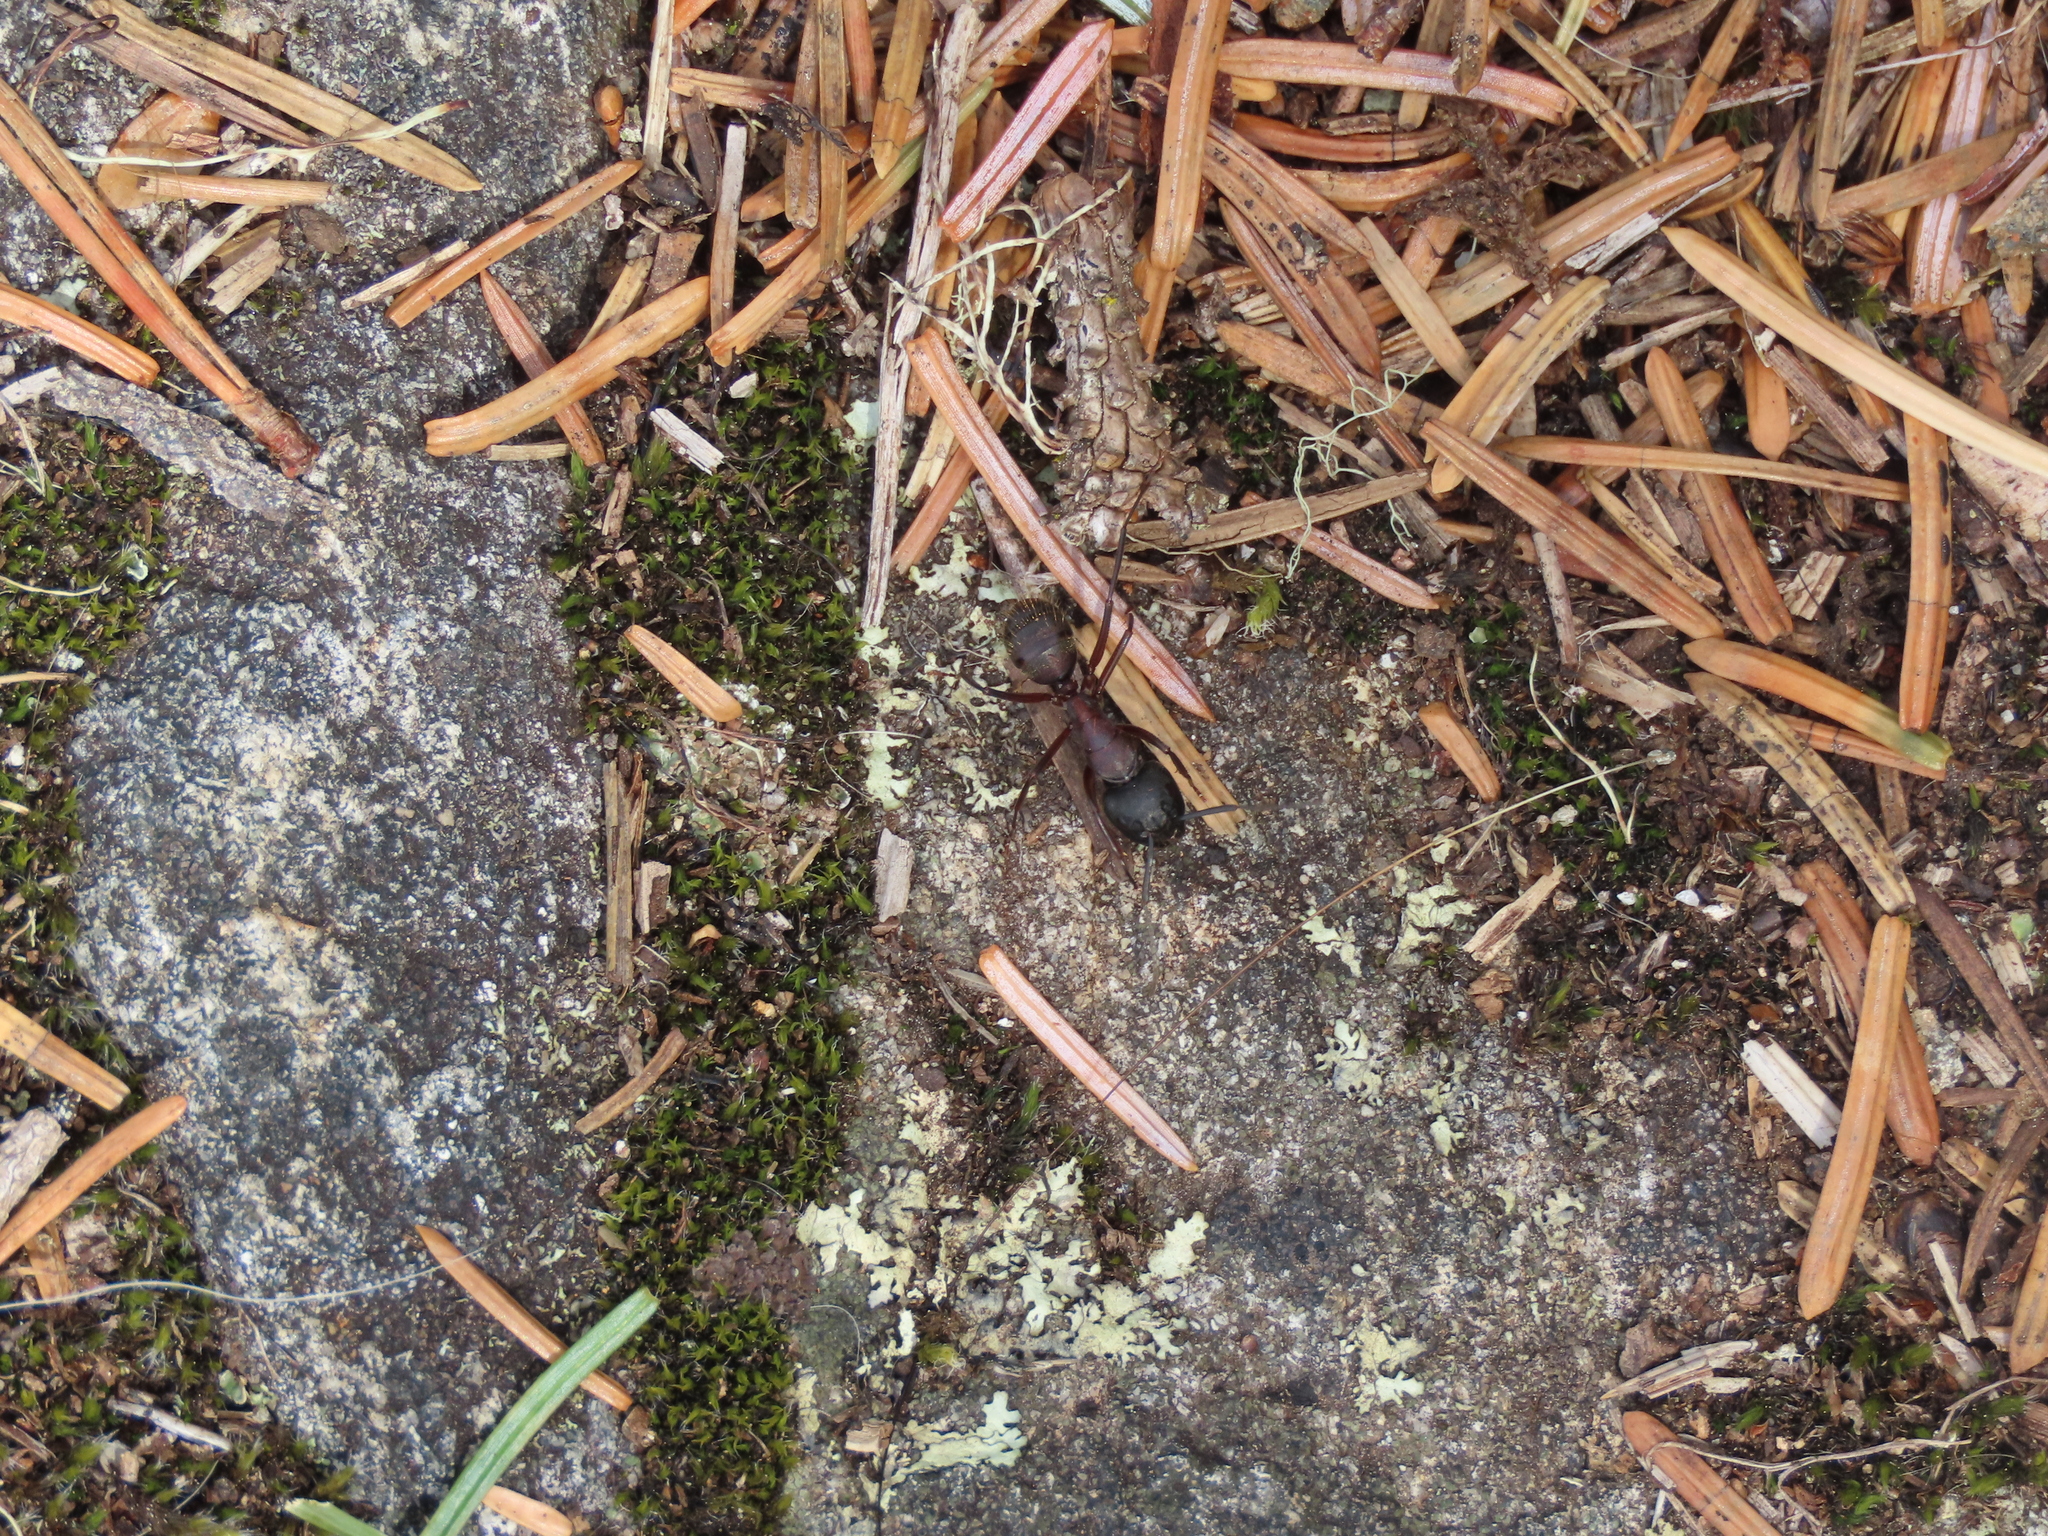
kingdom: Animalia
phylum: Arthropoda
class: Insecta
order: Hymenoptera
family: Formicidae
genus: Camponotus
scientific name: Camponotus vicinus
